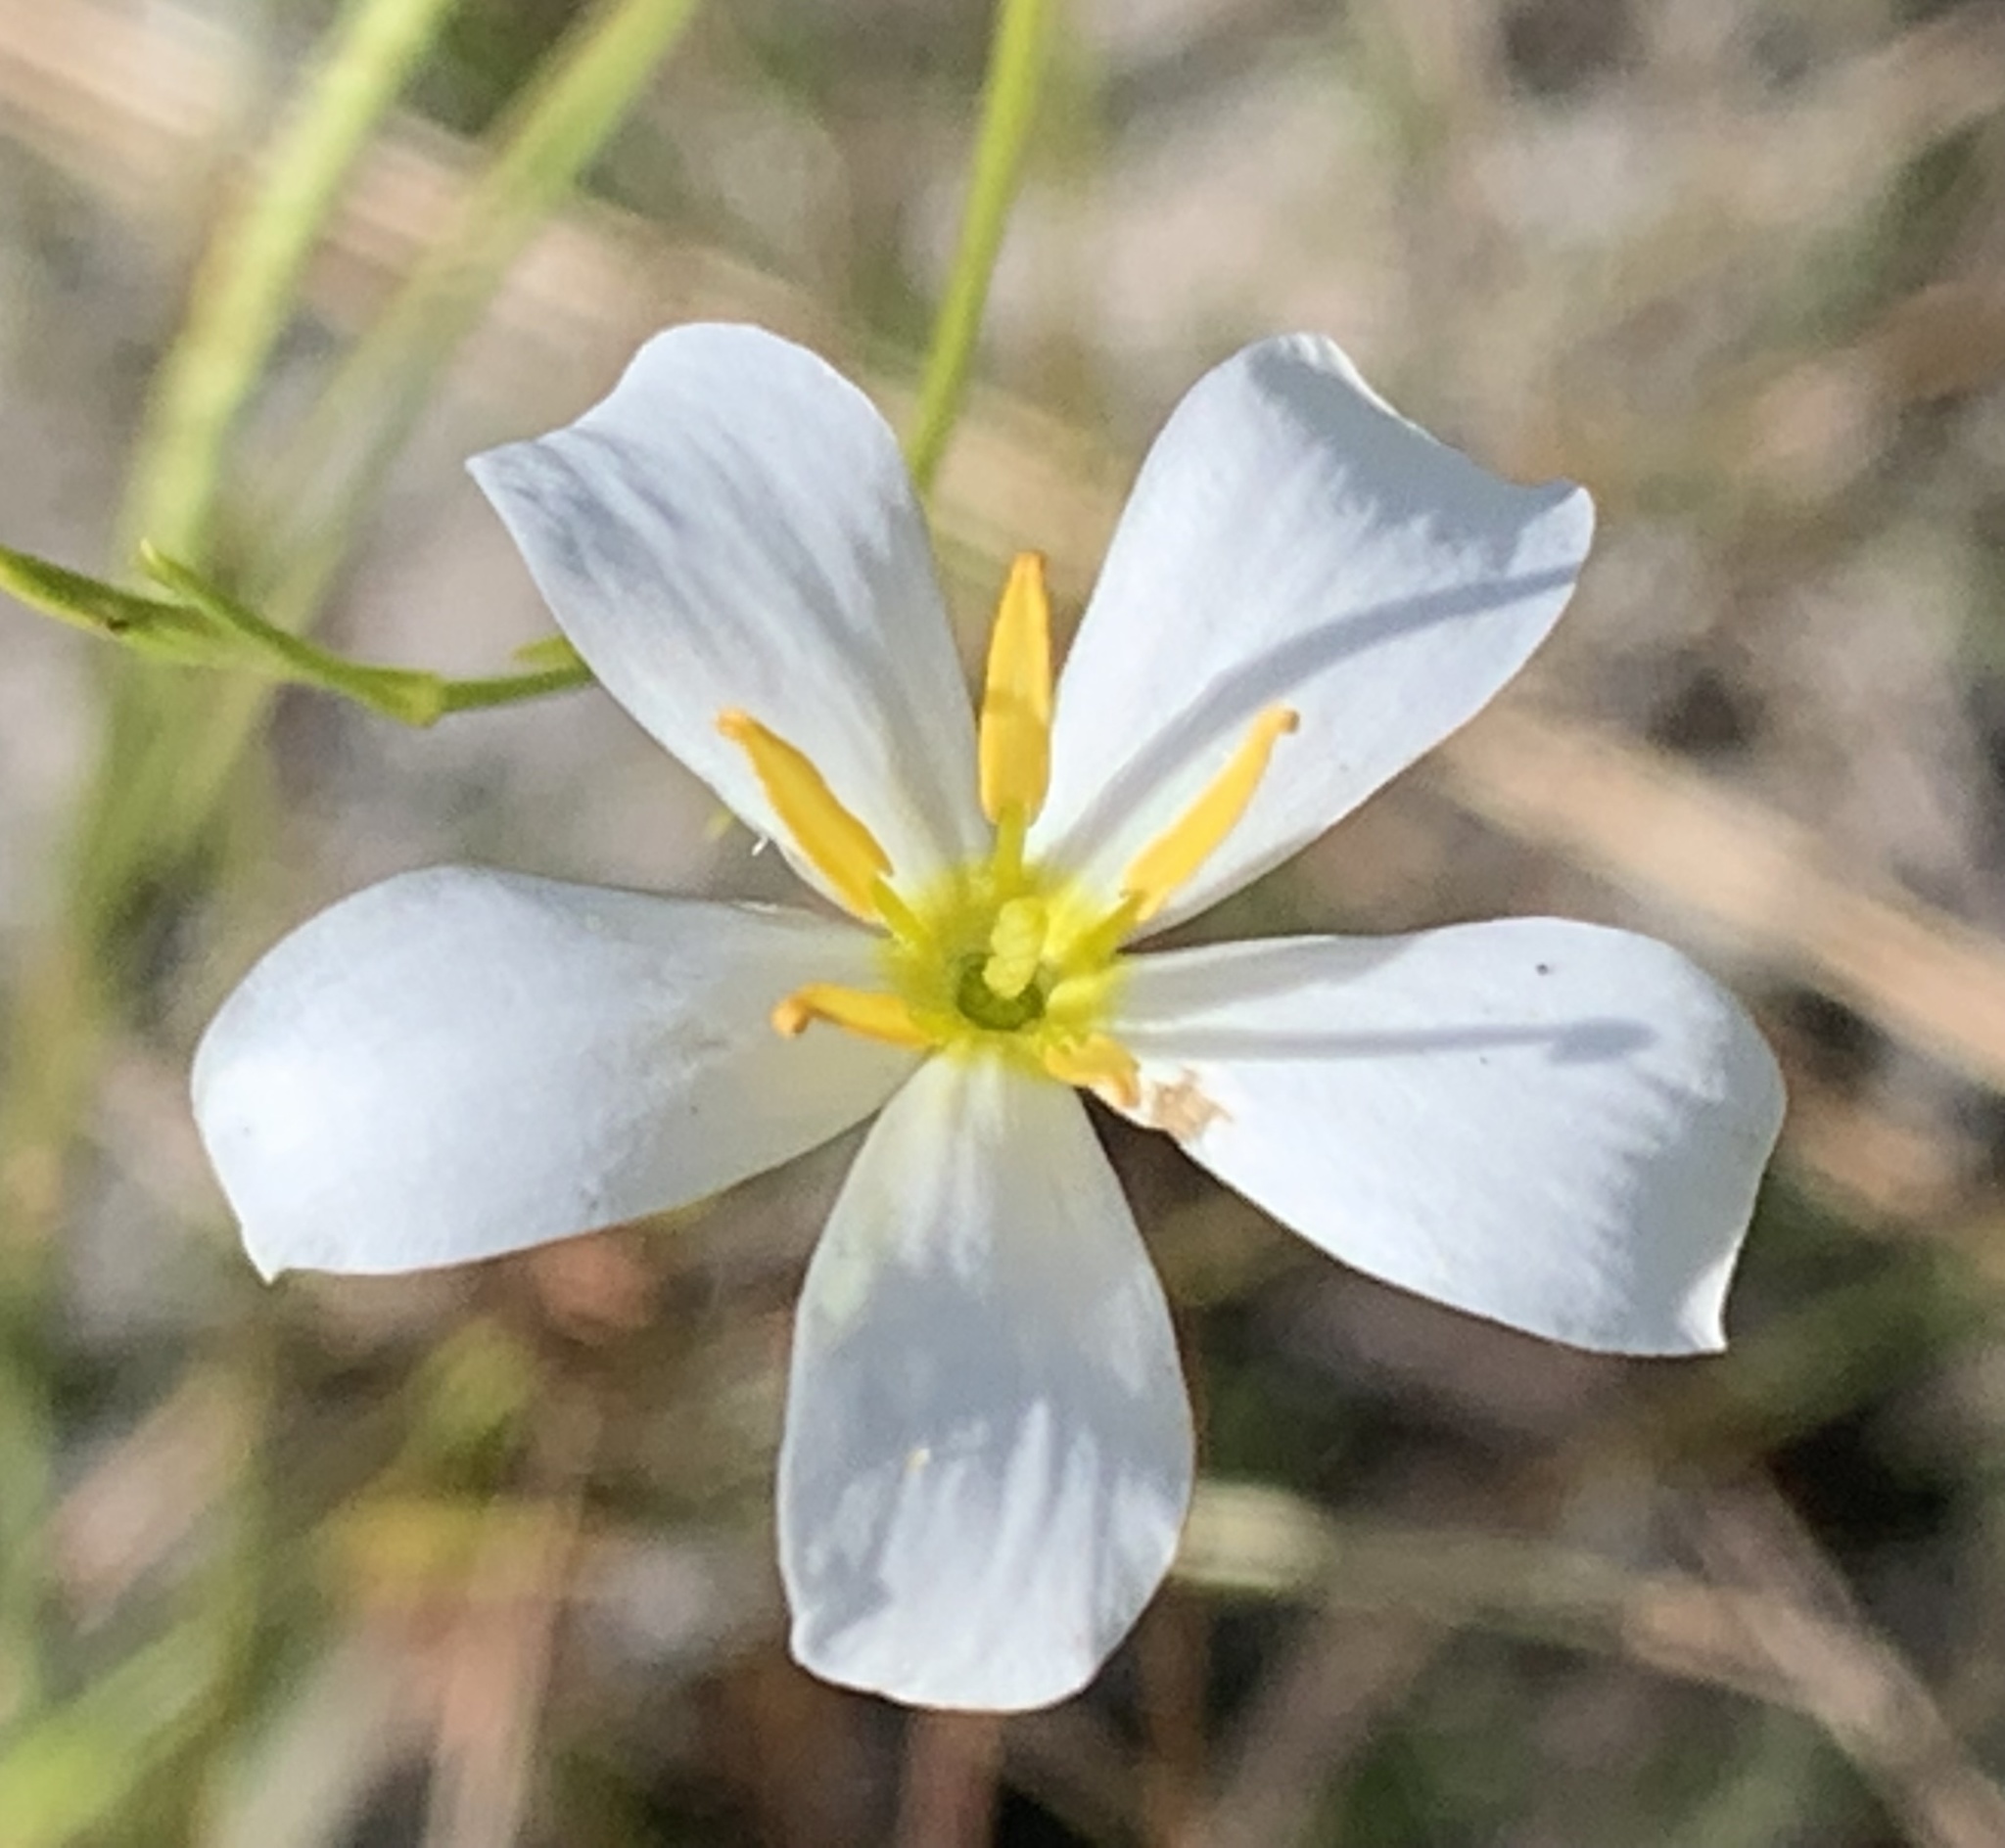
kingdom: Plantae
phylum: Tracheophyta
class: Magnoliopsida
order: Gentianales
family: Gentianaceae
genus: Sabatia
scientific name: Sabatia brevifolia
